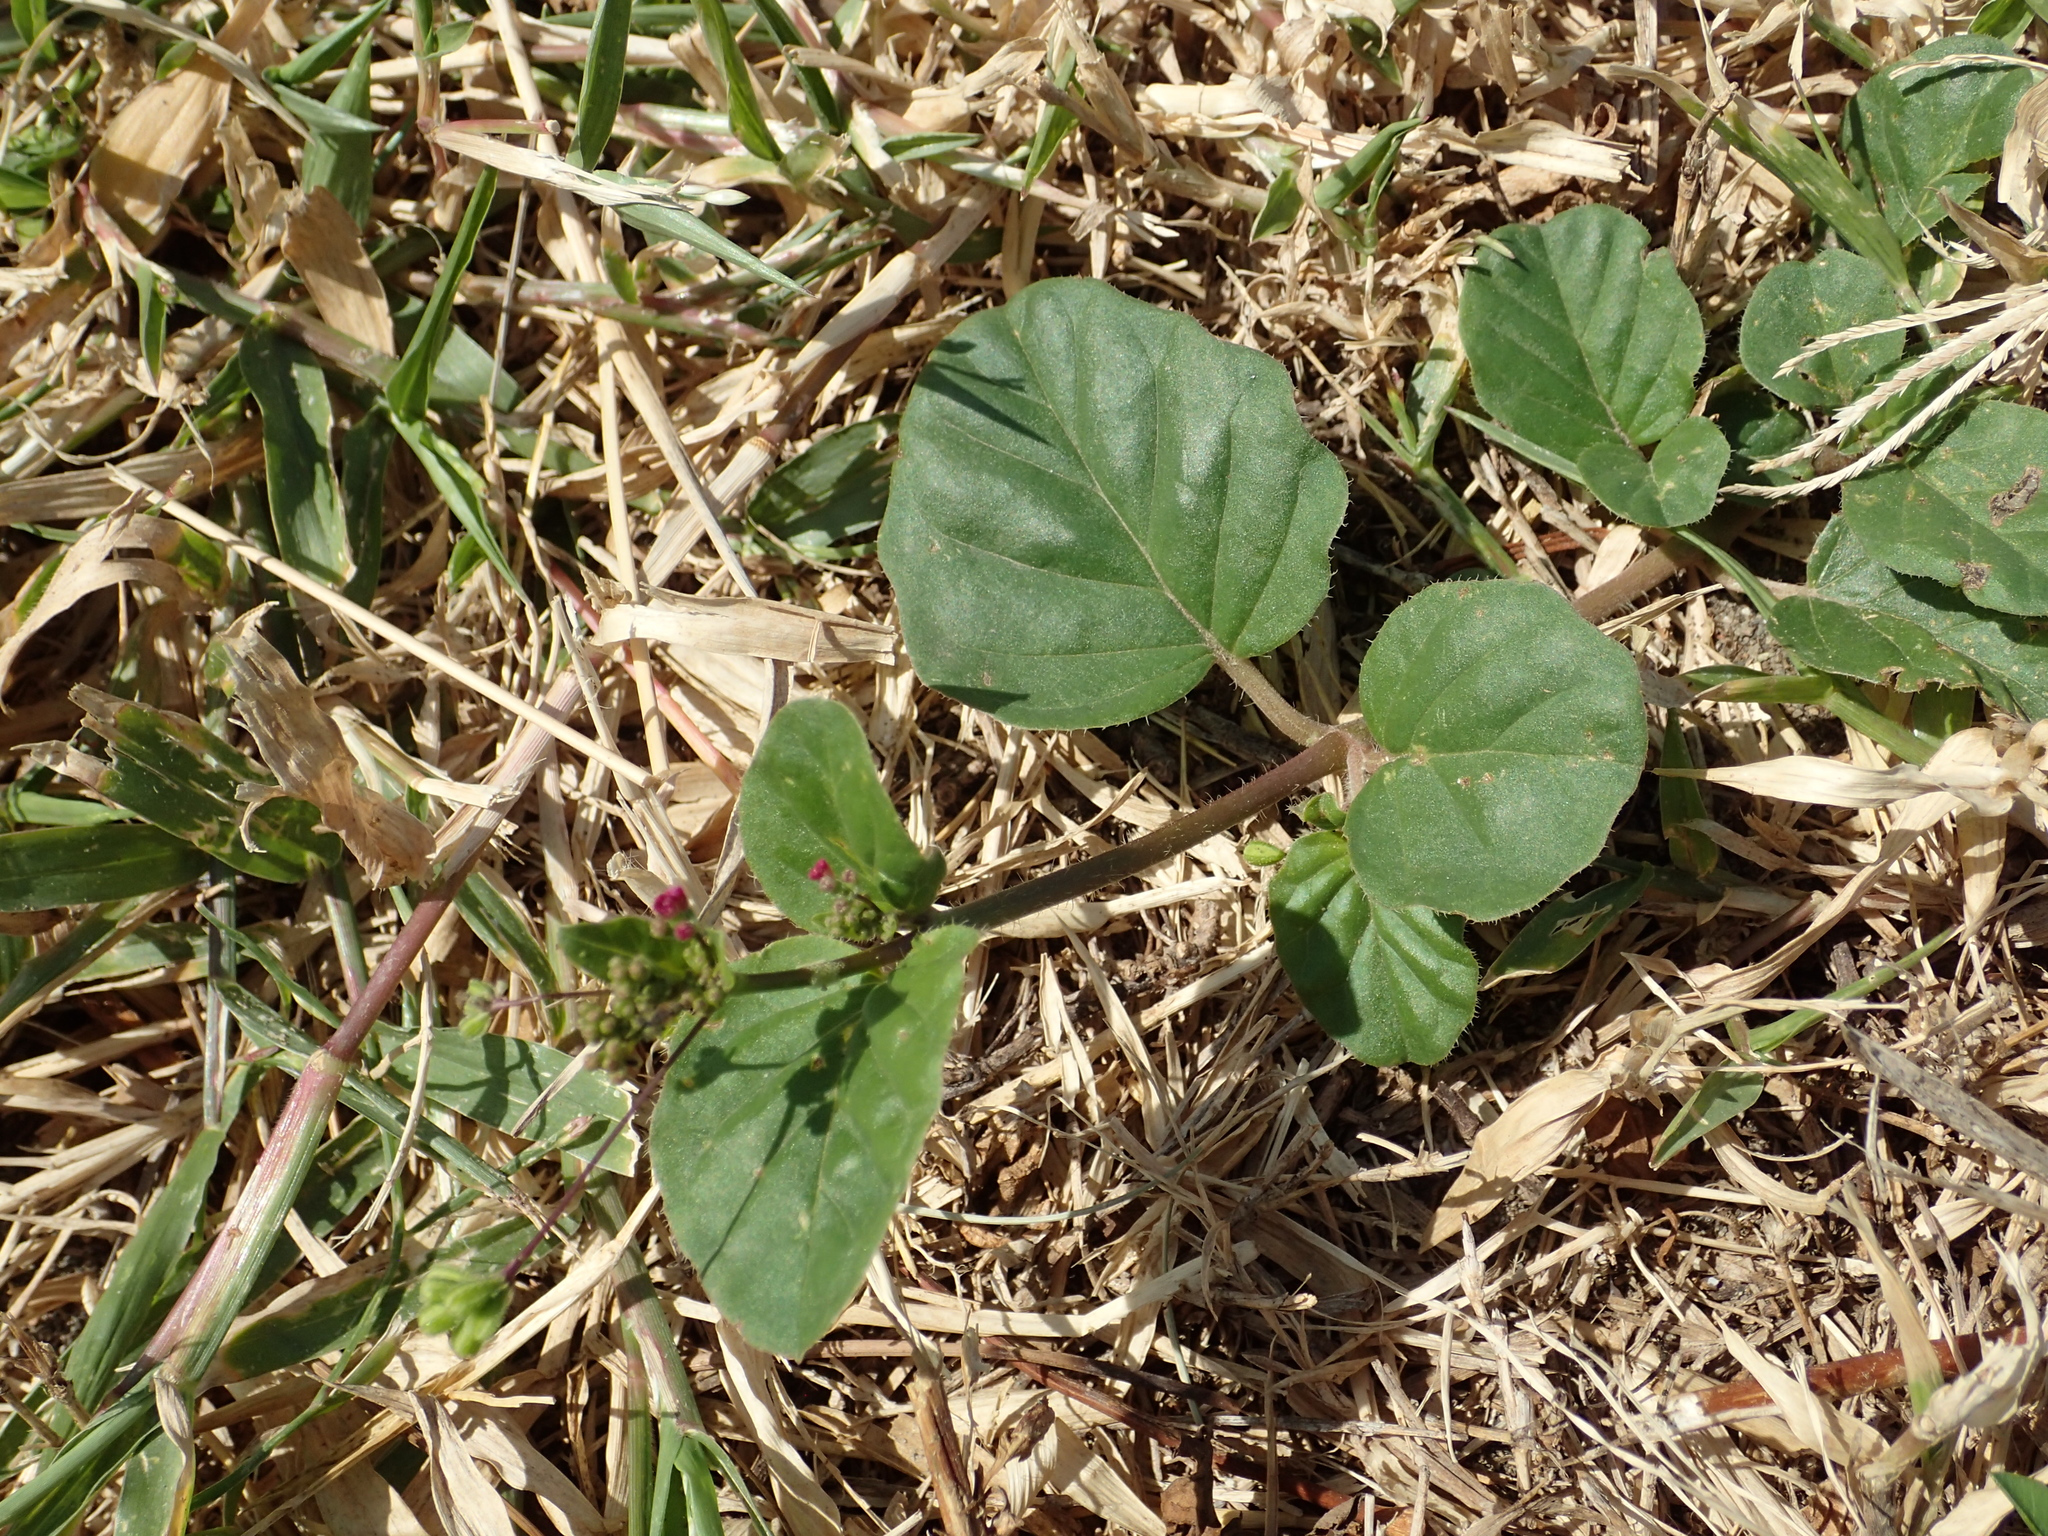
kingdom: Plantae
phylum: Tracheophyta
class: Magnoliopsida
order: Caryophyllales
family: Nyctaginaceae
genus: Boerhavia
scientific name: Boerhavia coccinea
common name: Scarlet spiderling
